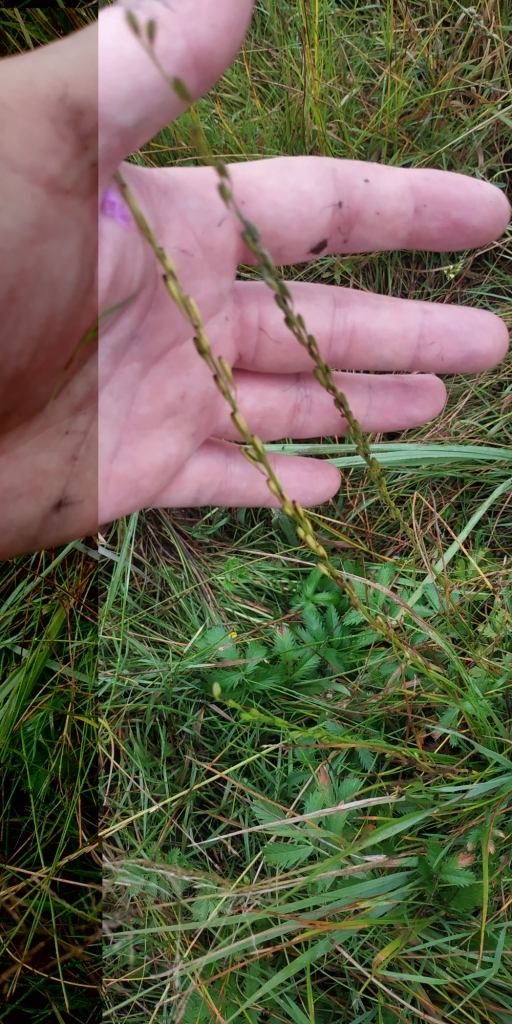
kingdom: Plantae
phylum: Tracheophyta
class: Liliopsida
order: Alismatales
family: Juncaginaceae
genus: Triglochin
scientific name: Triglochin palustris
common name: Marsh arrowgrass
